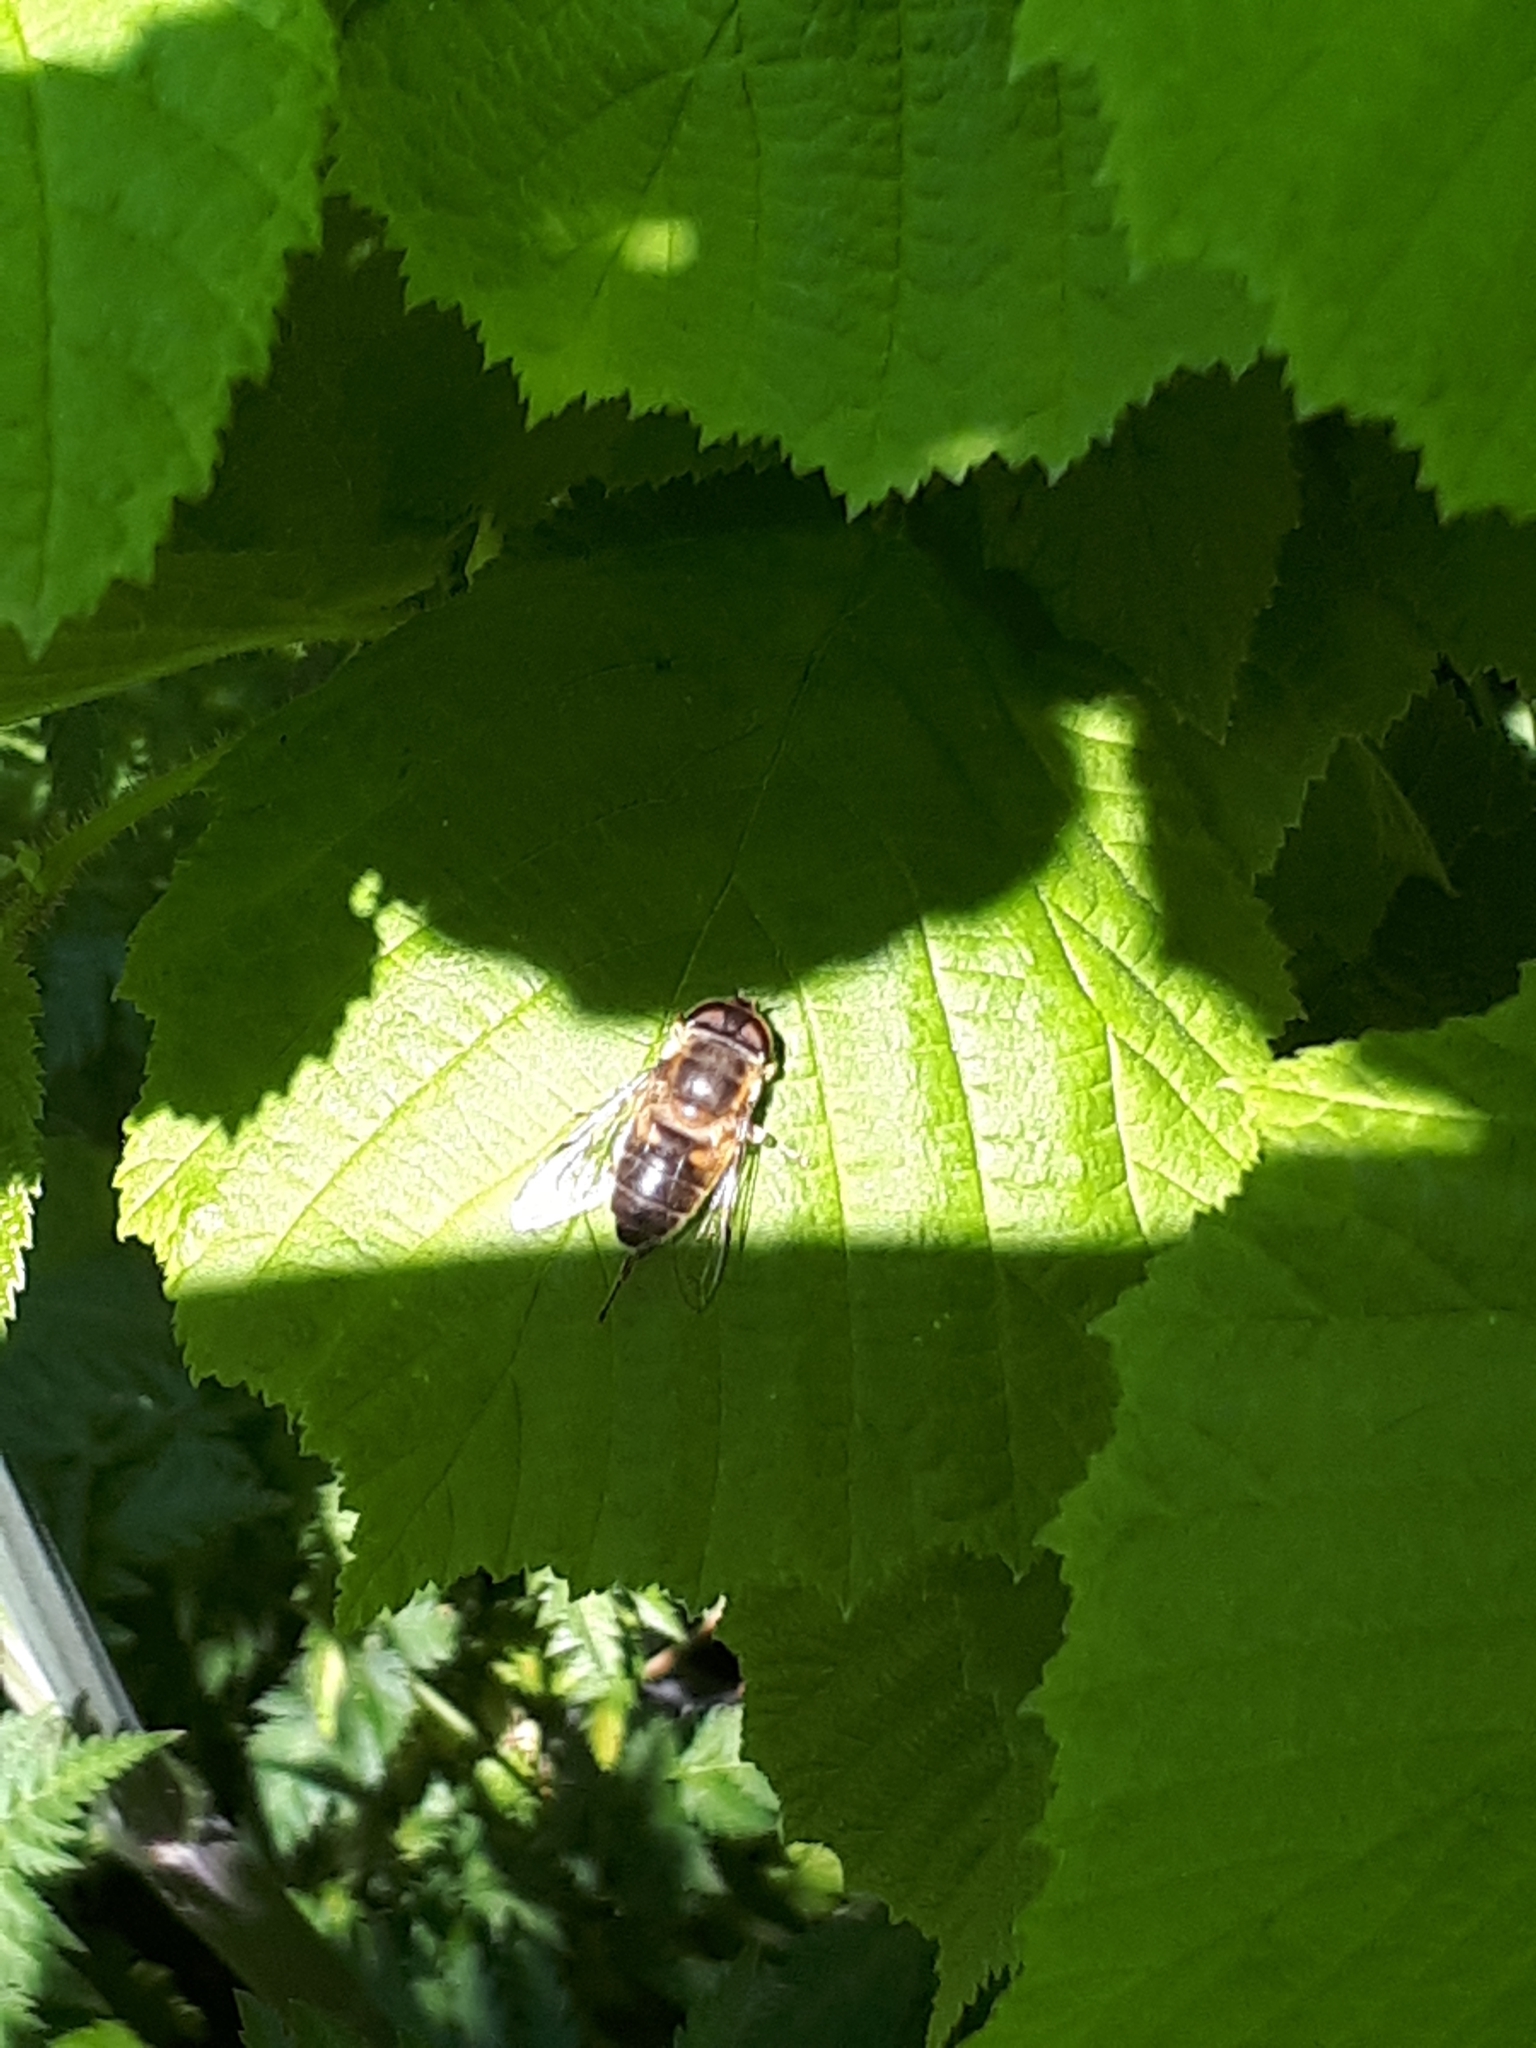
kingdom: Animalia
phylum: Arthropoda
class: Insecta
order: Diptera
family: Syrphidae
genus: Eristalis
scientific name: Eristalis
